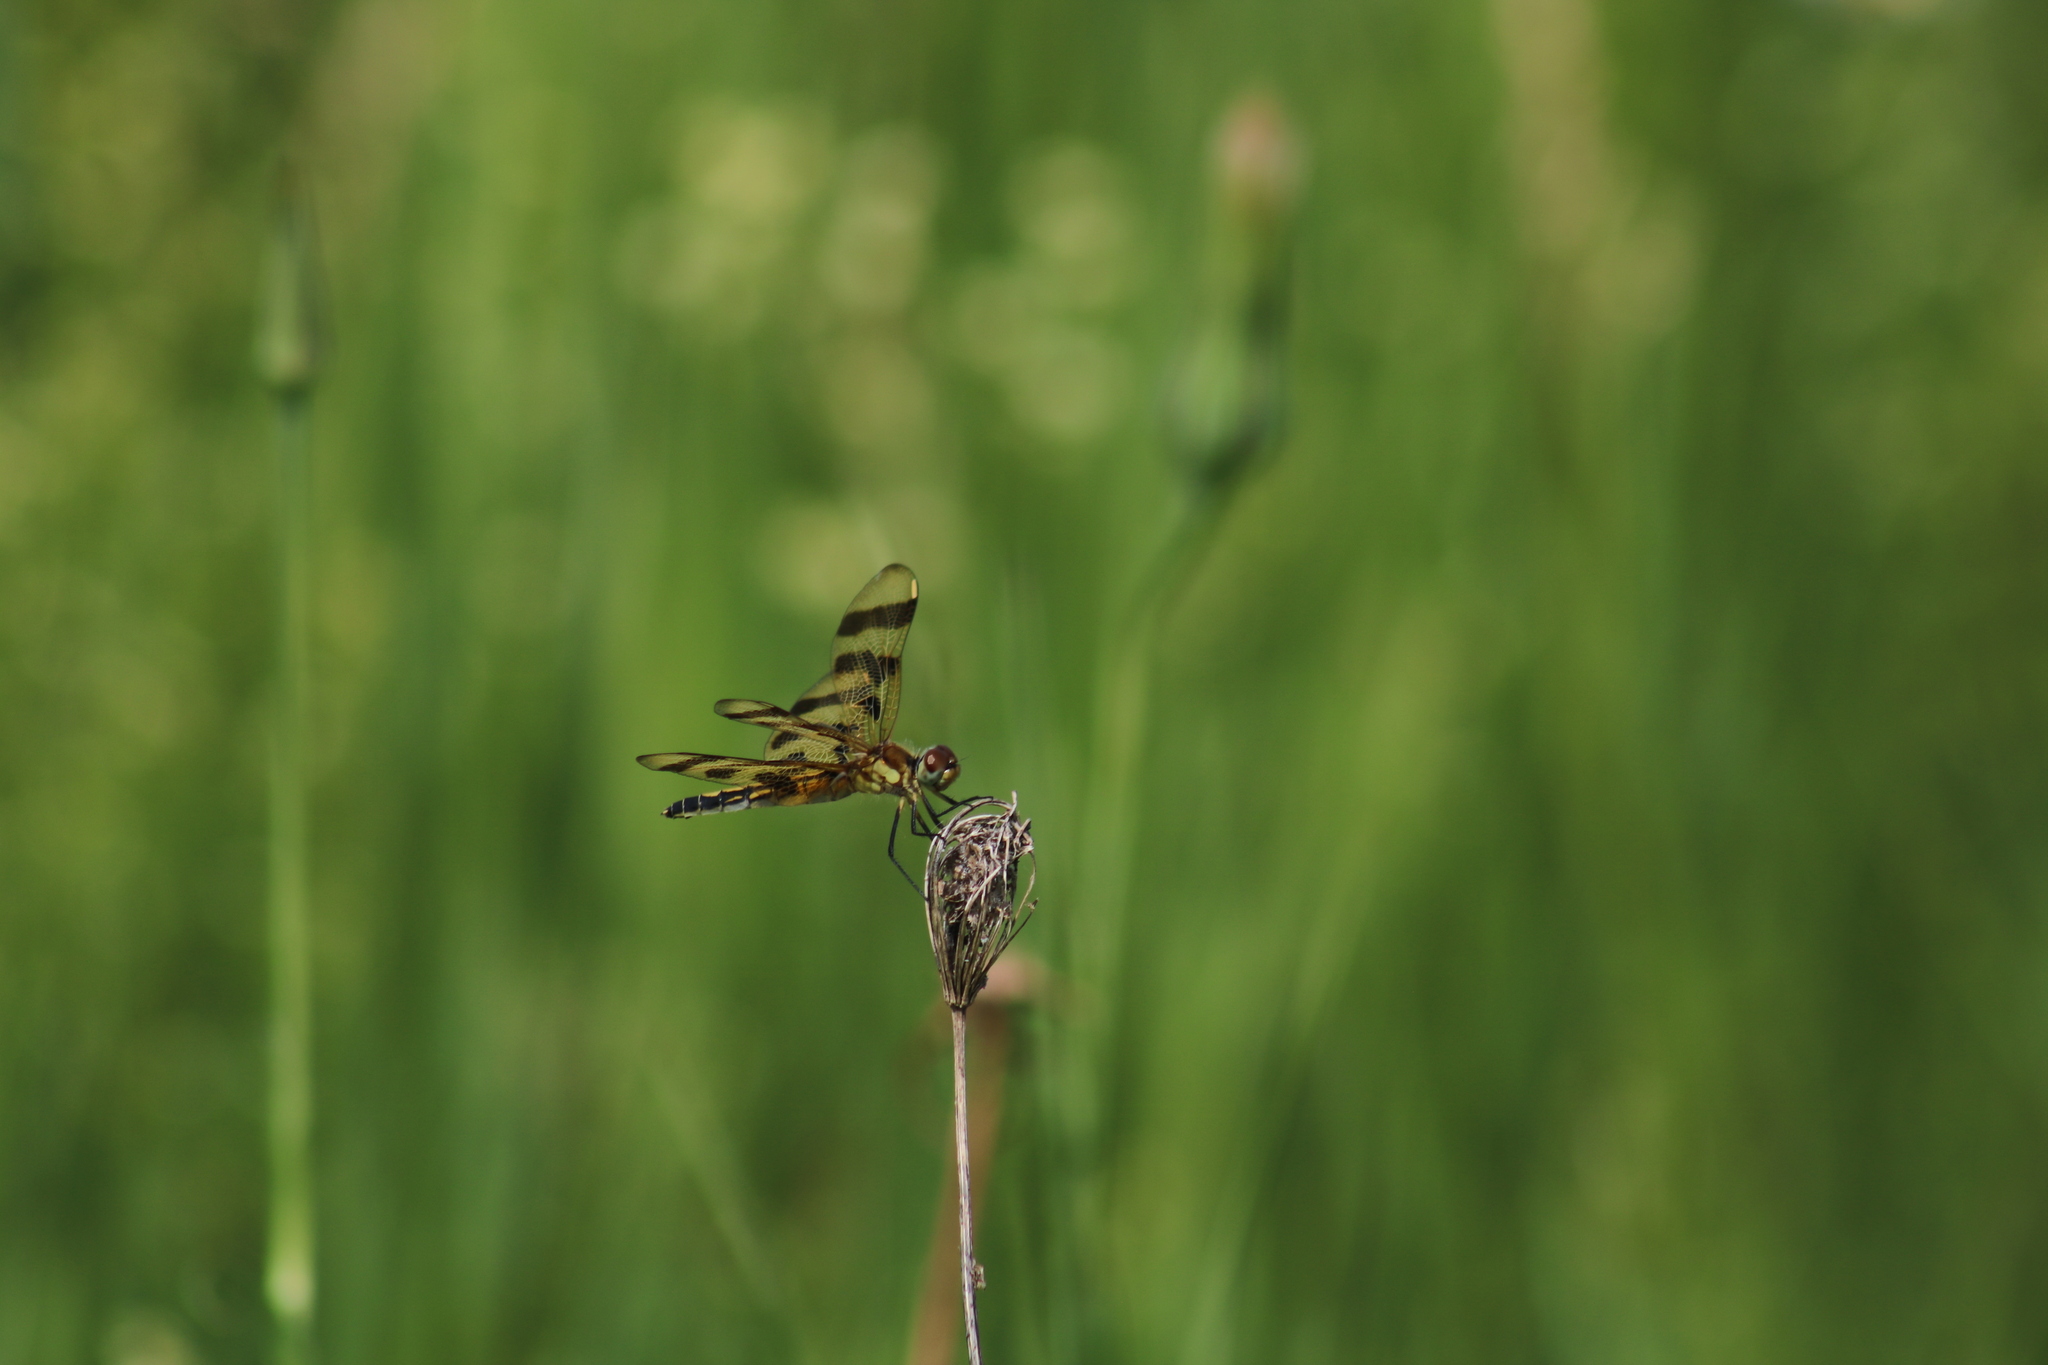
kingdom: Animalia
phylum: Arthropoda
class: Insecta
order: Odonata
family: Libellulidae
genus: Celithemis
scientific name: Celithemis eponina
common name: Halloween pennant
